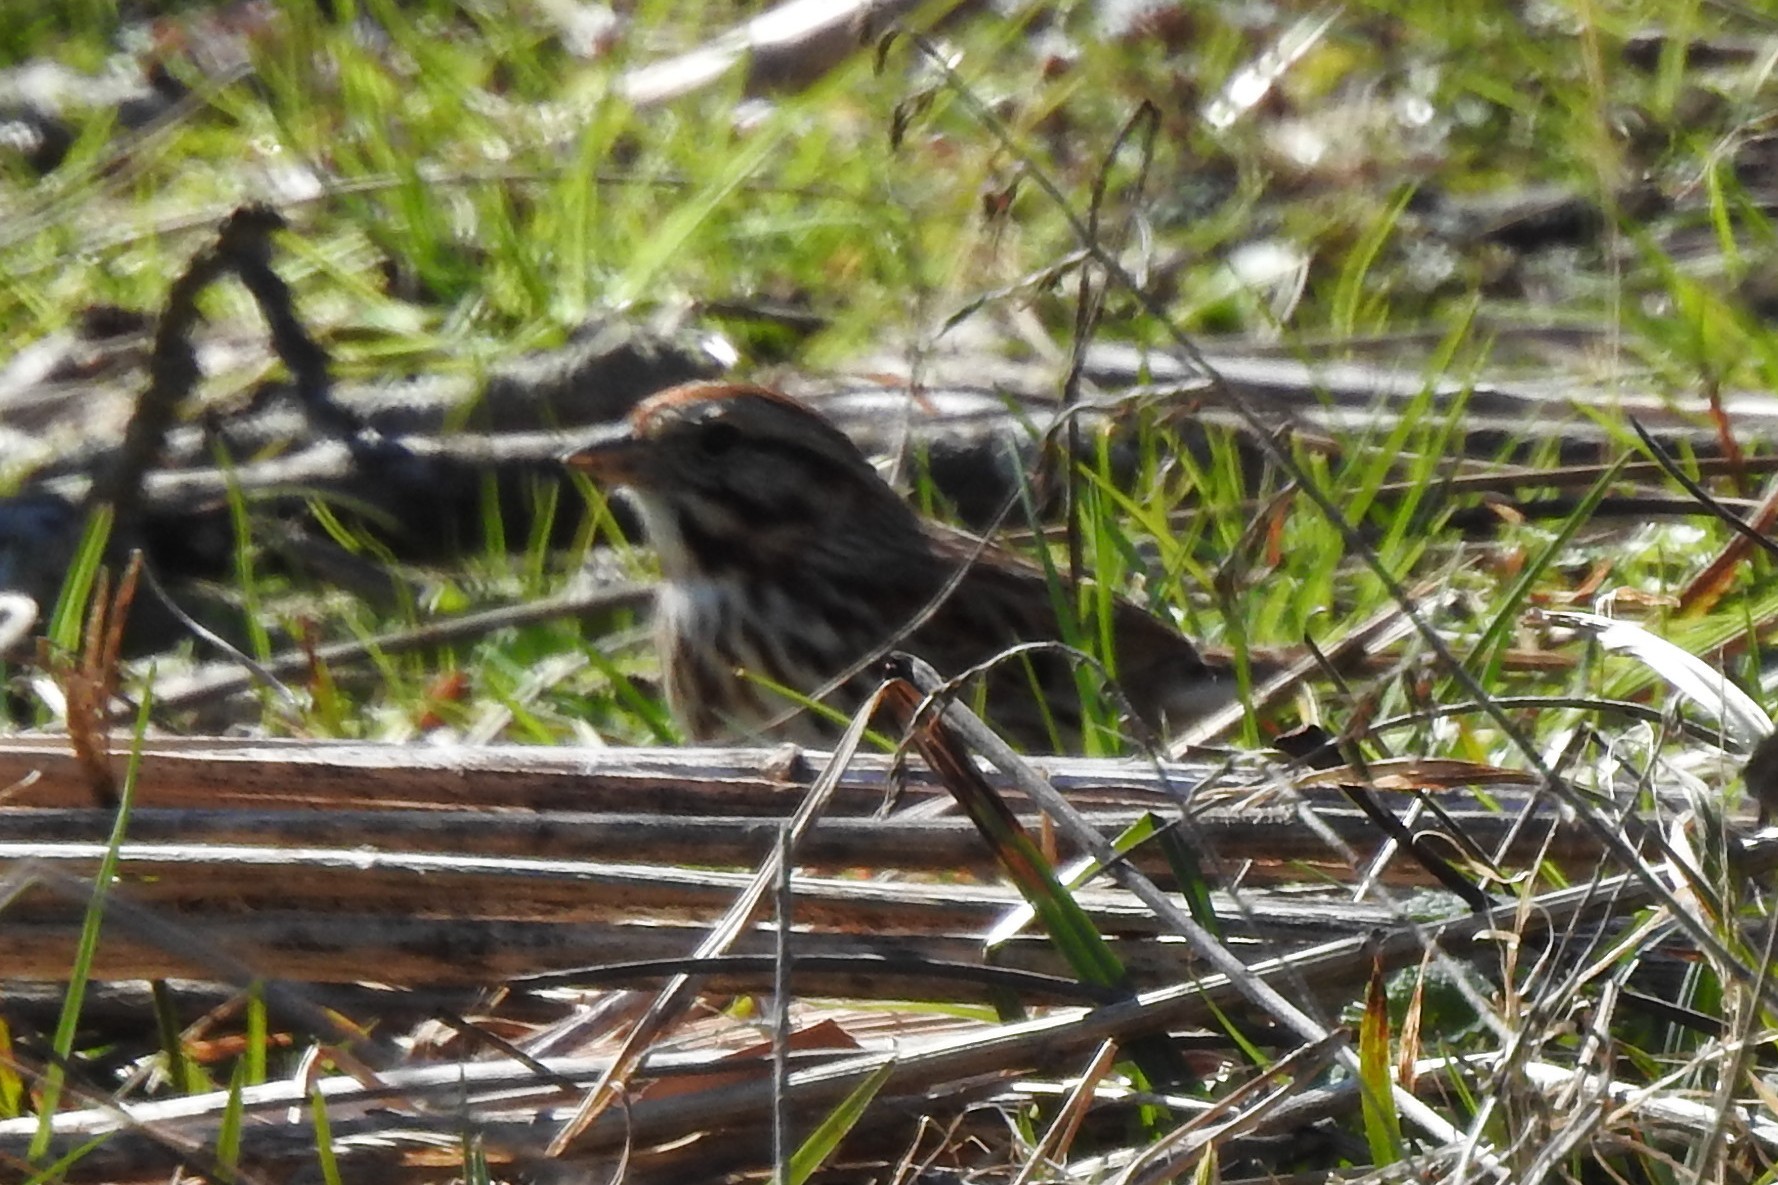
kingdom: Animalia
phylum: Chordata
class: Aves
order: Passeriformes
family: Passerellidae
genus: Melospiza
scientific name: Melospiza melodia
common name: Song sparrow
